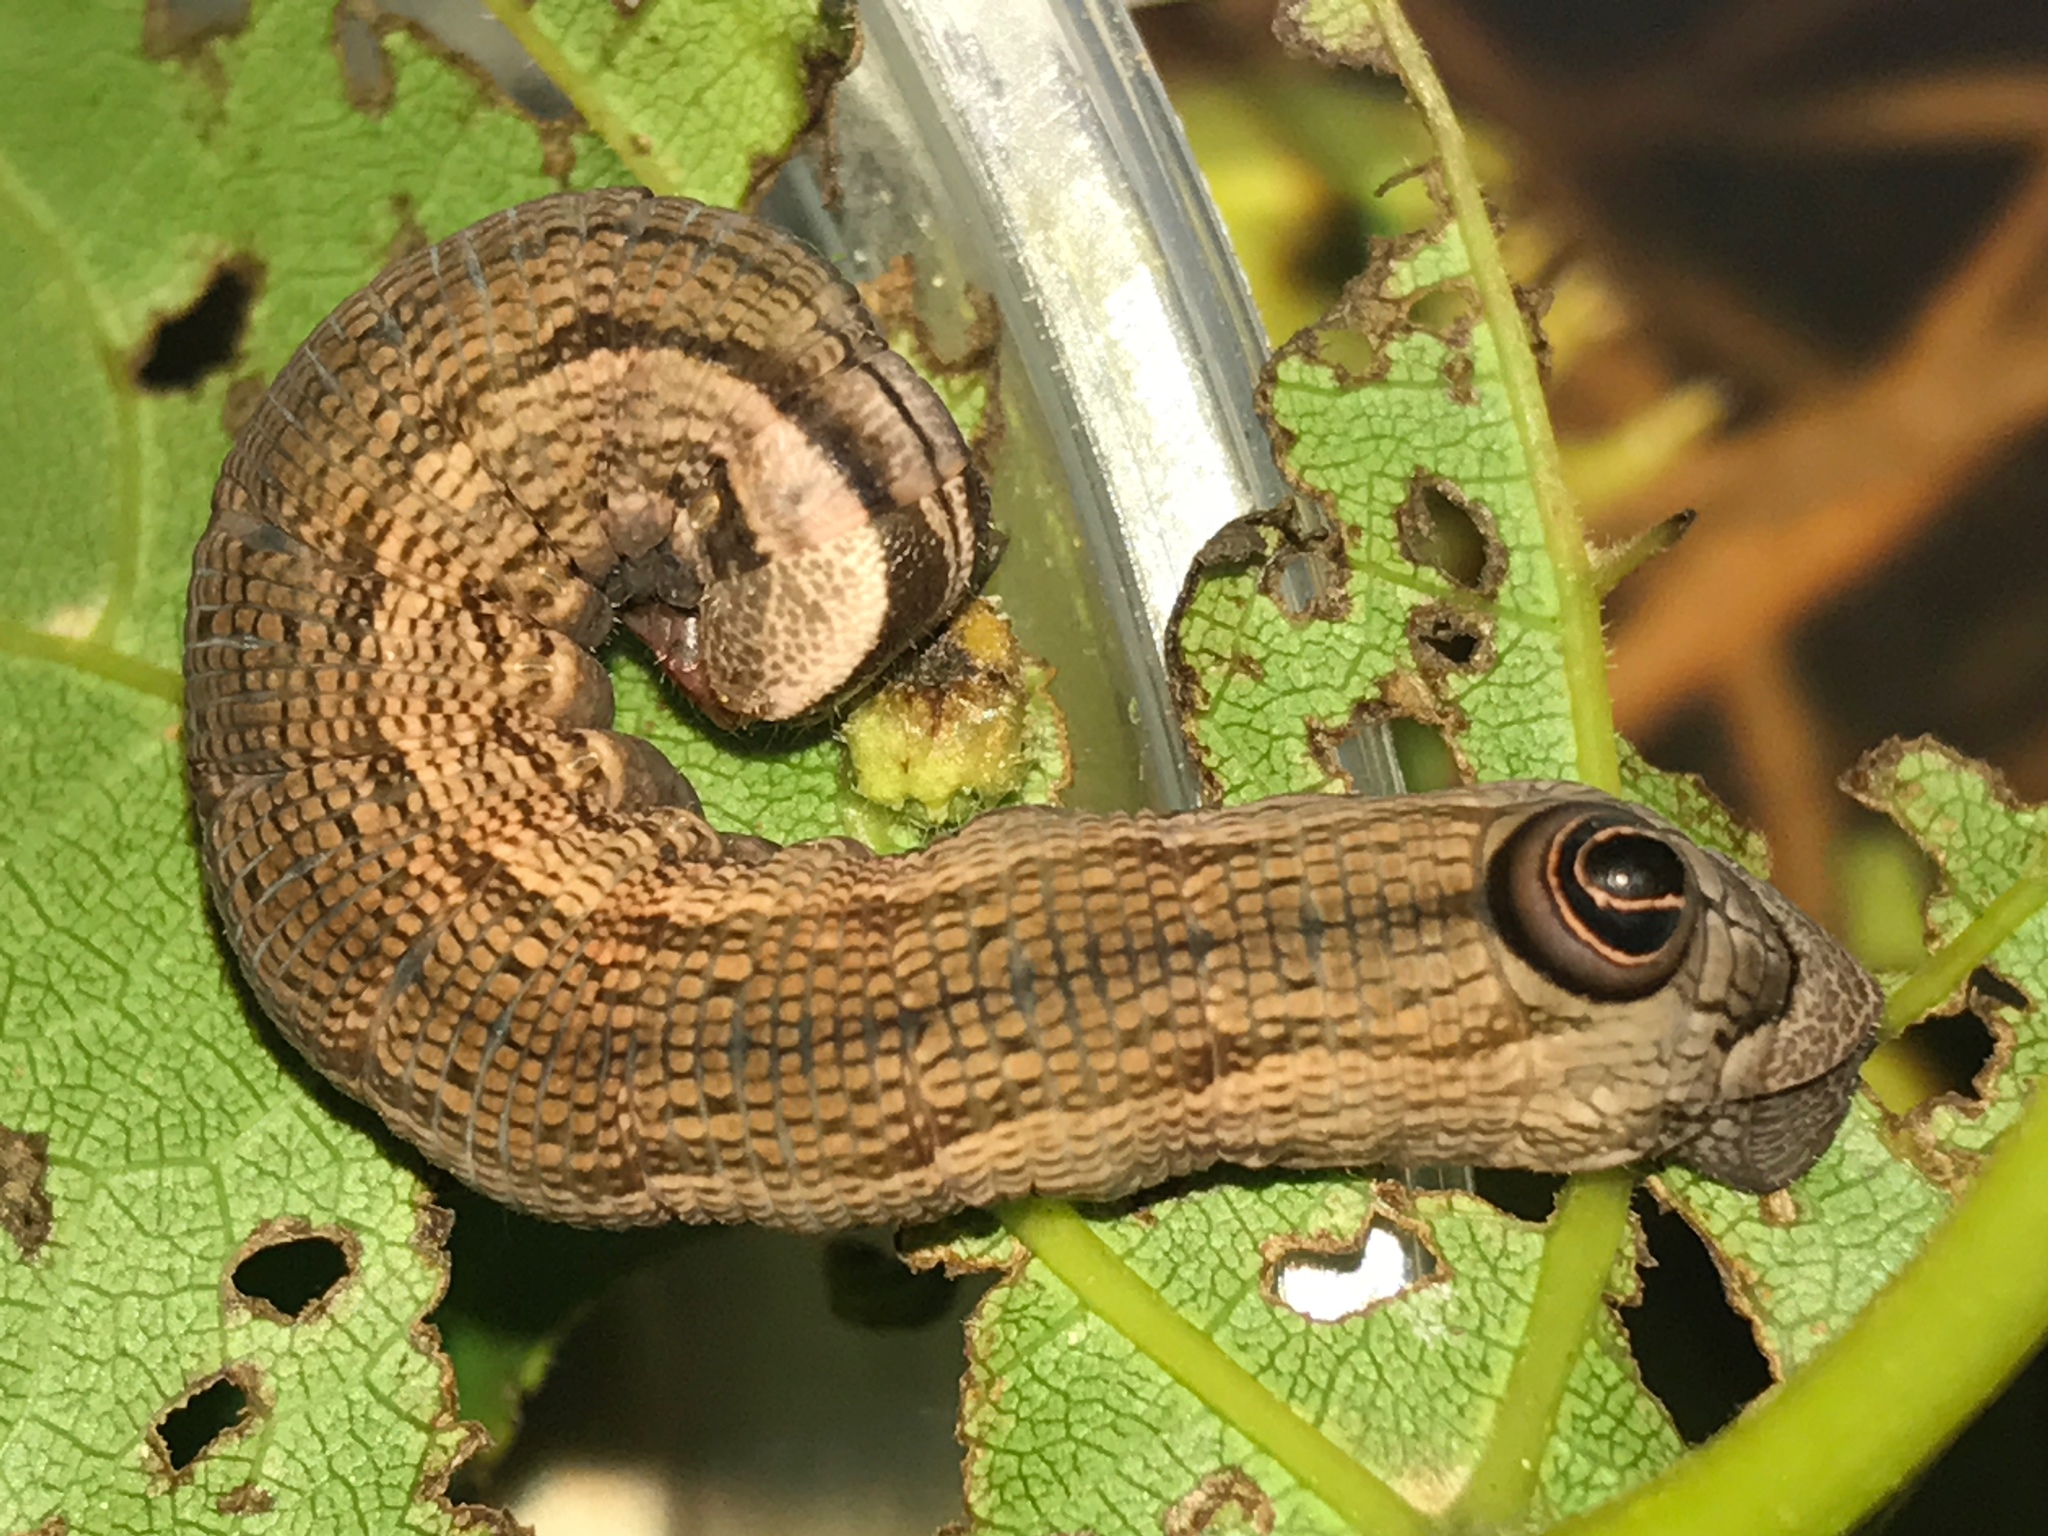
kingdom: Animalia
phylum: Arthropoda
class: Insecta
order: Lepidoptera
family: Sphingidae
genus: Sphecodina
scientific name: Sphecodina abbottii
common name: Abbott's sphinx
